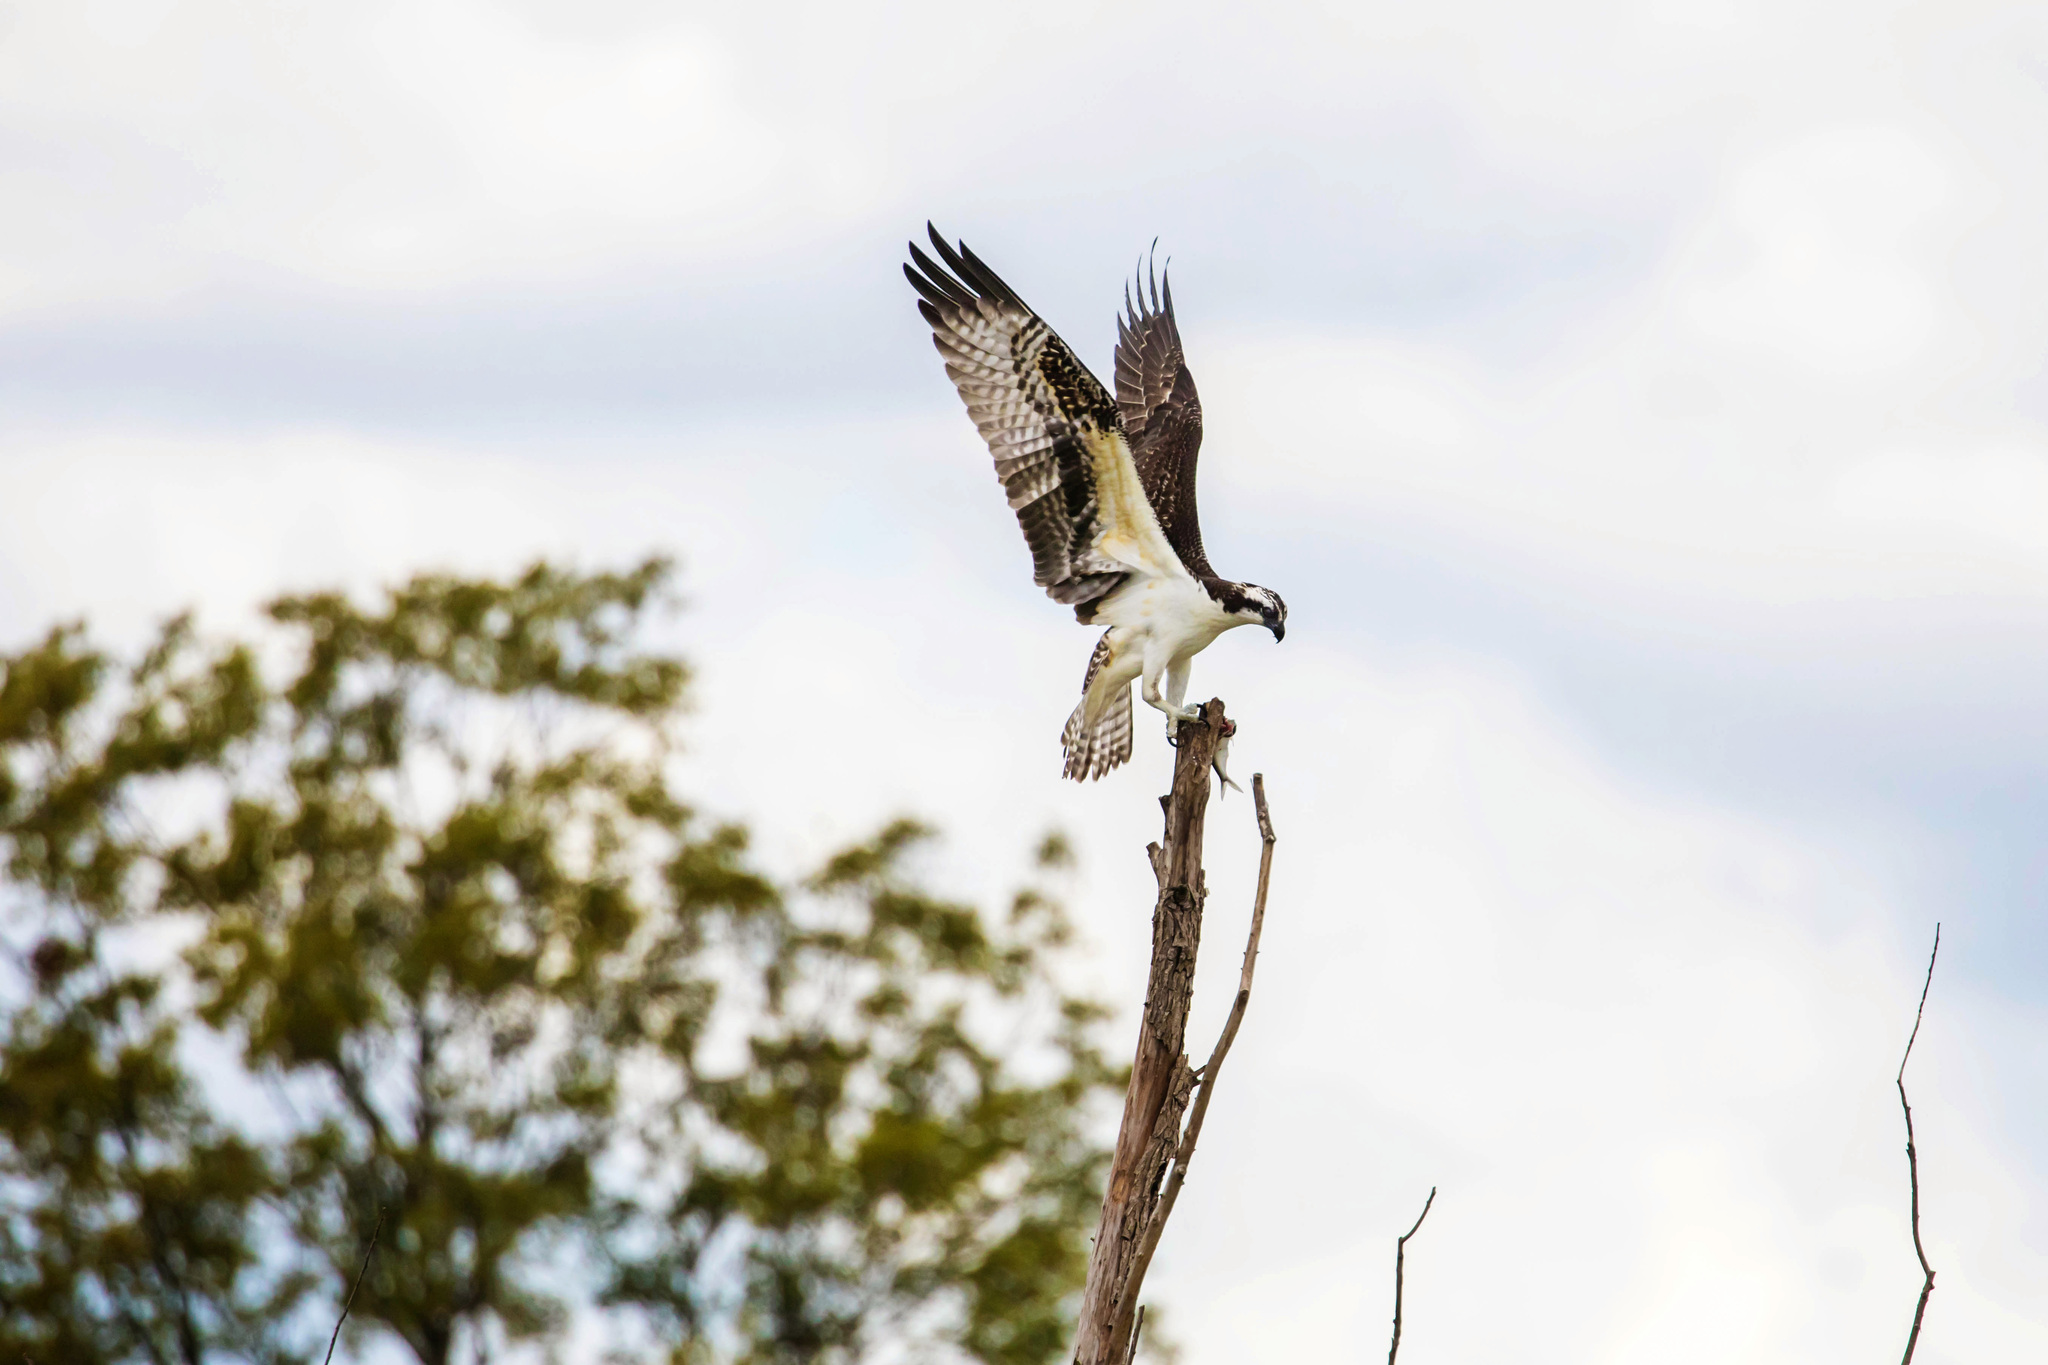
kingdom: Animalia
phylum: Chordata
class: Aves
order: Accipitriformes
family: Pandionidae
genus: Pandion
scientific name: Pandion haliaetus
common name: Osprey
